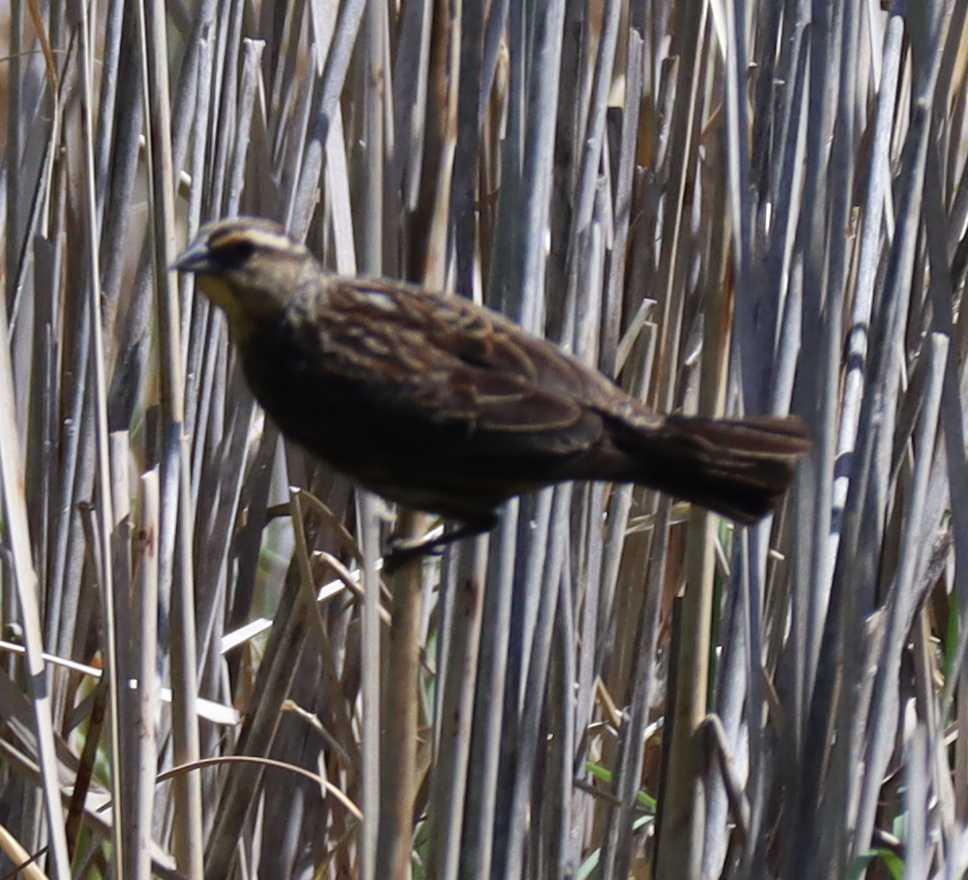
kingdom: Animalia
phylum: Chordata
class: Aves
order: Passeriformes
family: Icteridae
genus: Agelaius
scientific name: Agelaius phoeniceus
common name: Red-winged blackbird
